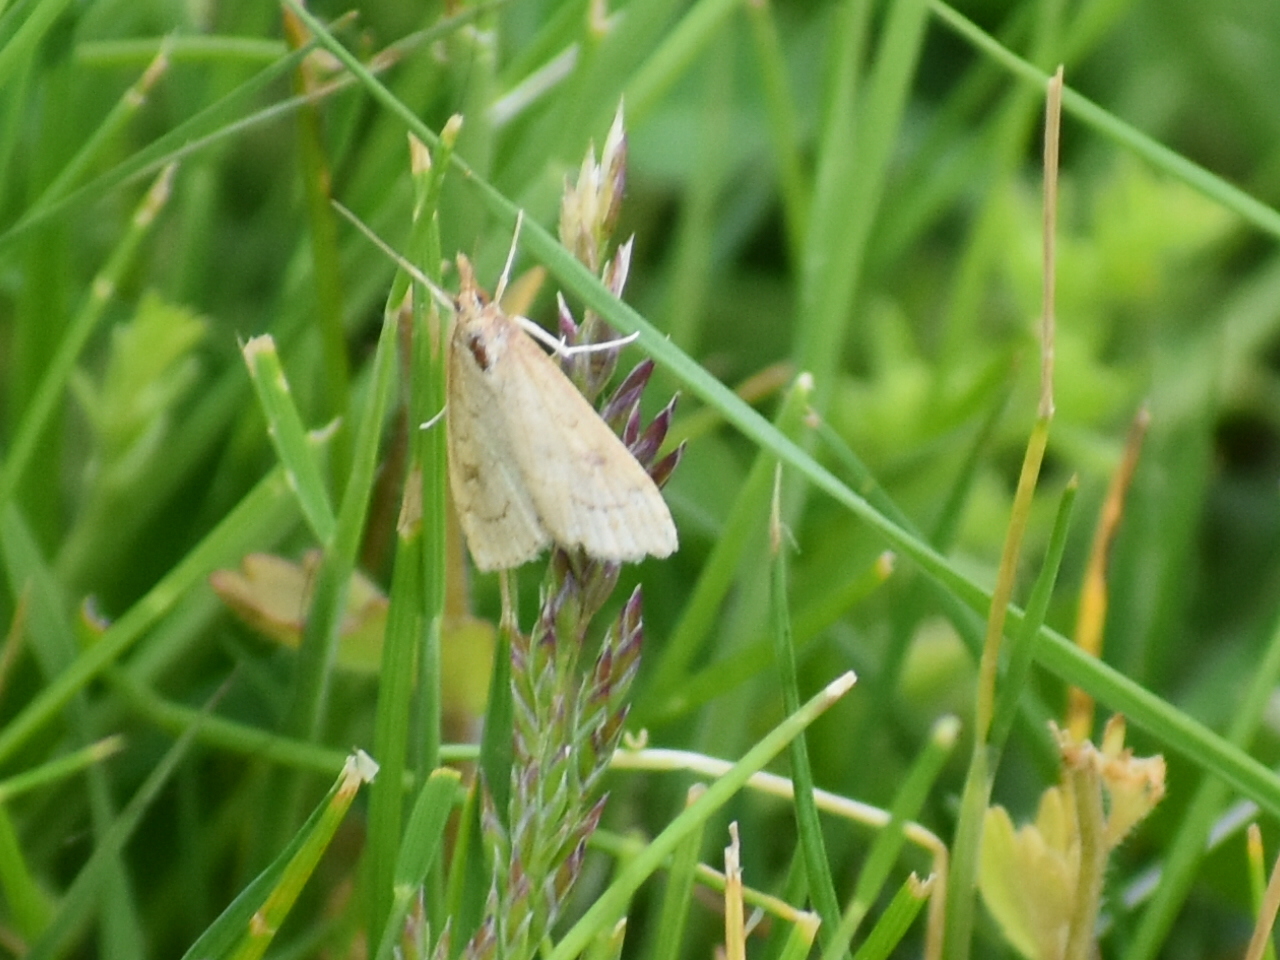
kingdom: Animalia
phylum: Arthropoda
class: Insecta
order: Lepidoptera
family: Crambidae
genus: Udea
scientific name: Udea rubigalis
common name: Celery leaftier moth
